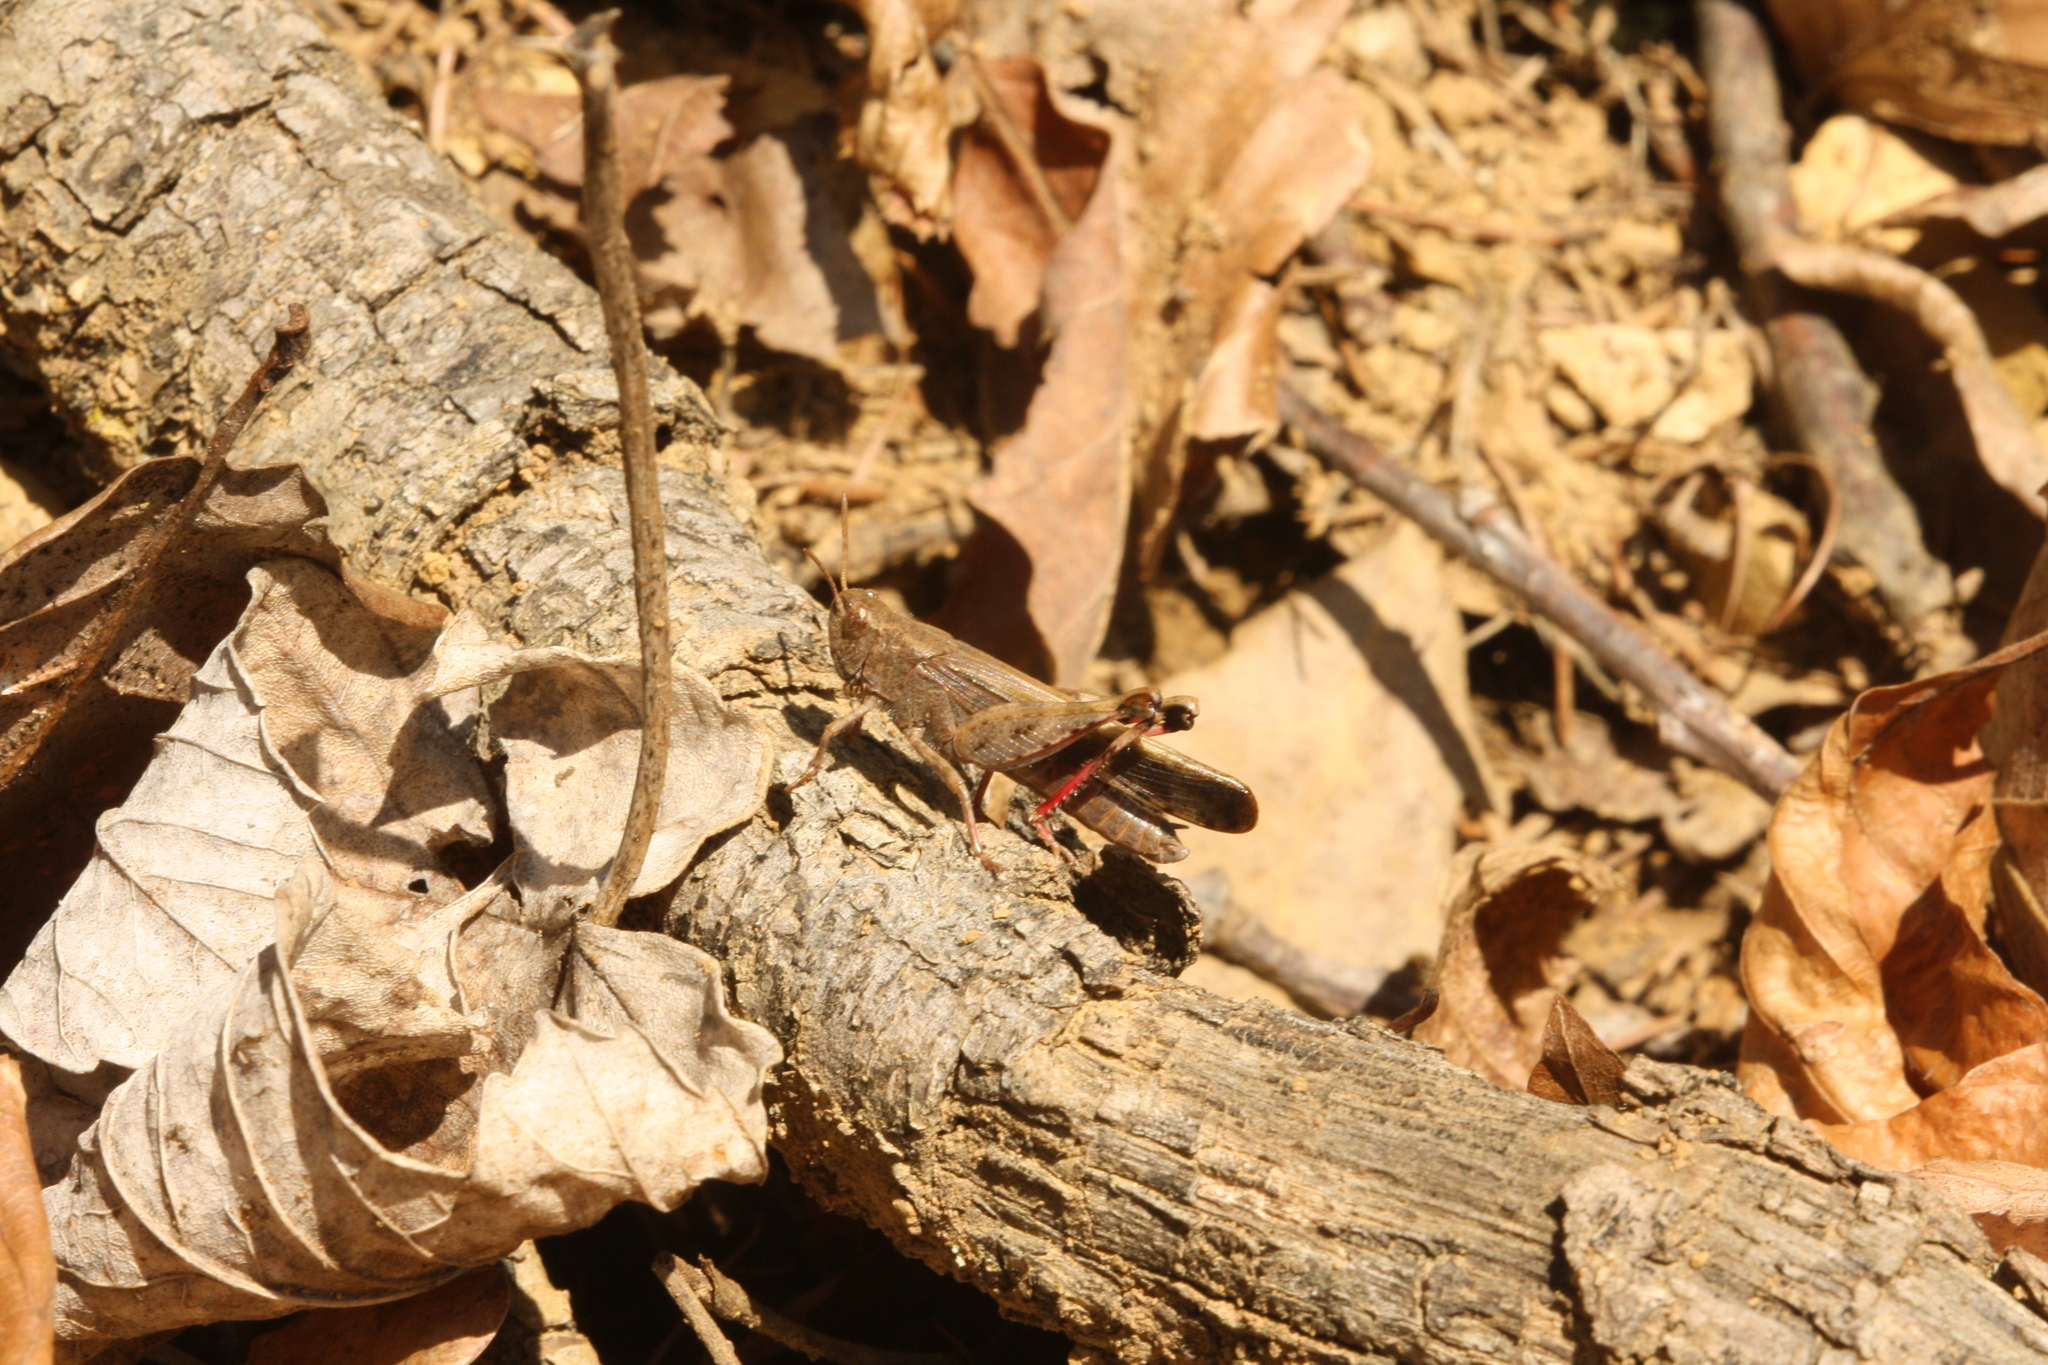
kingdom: Animalia
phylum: Arthropoda
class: Insecta
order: Orthoptera
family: Acrididae
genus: Aiolopus
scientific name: Aiolopus strepens
